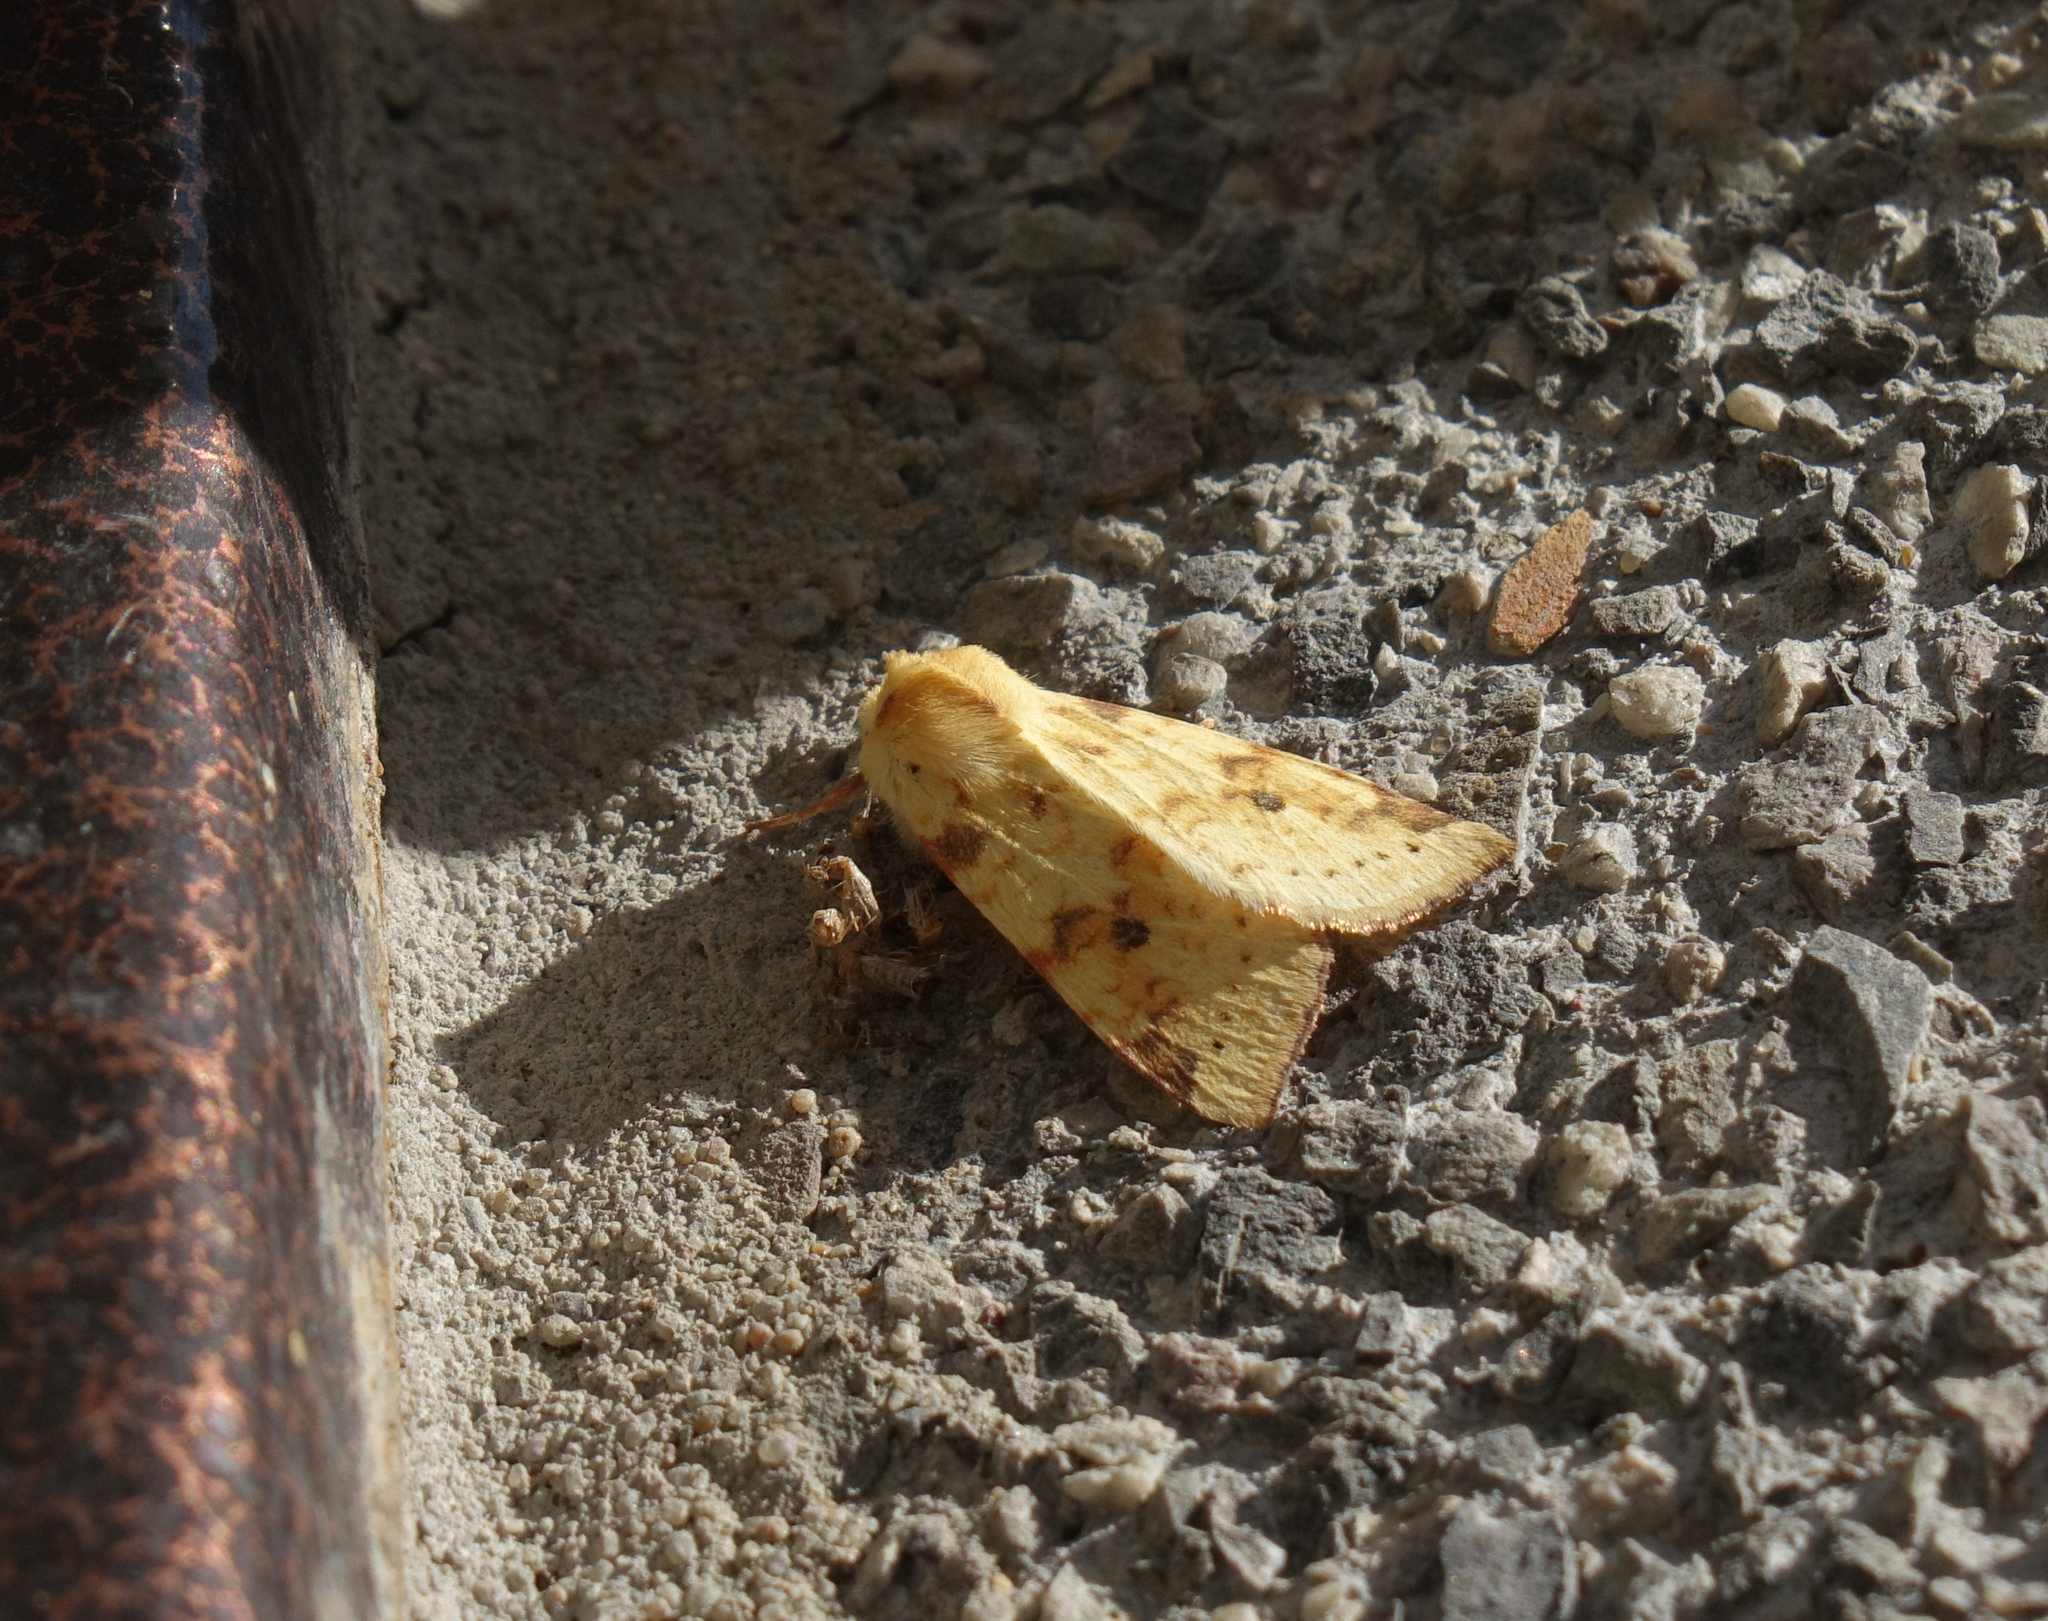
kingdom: Animalia
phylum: Arthropoda
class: Insecta
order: Lepidoptera
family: Noctuidae
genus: Xanthia
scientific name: Xanthia icteritia
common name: The sallow
